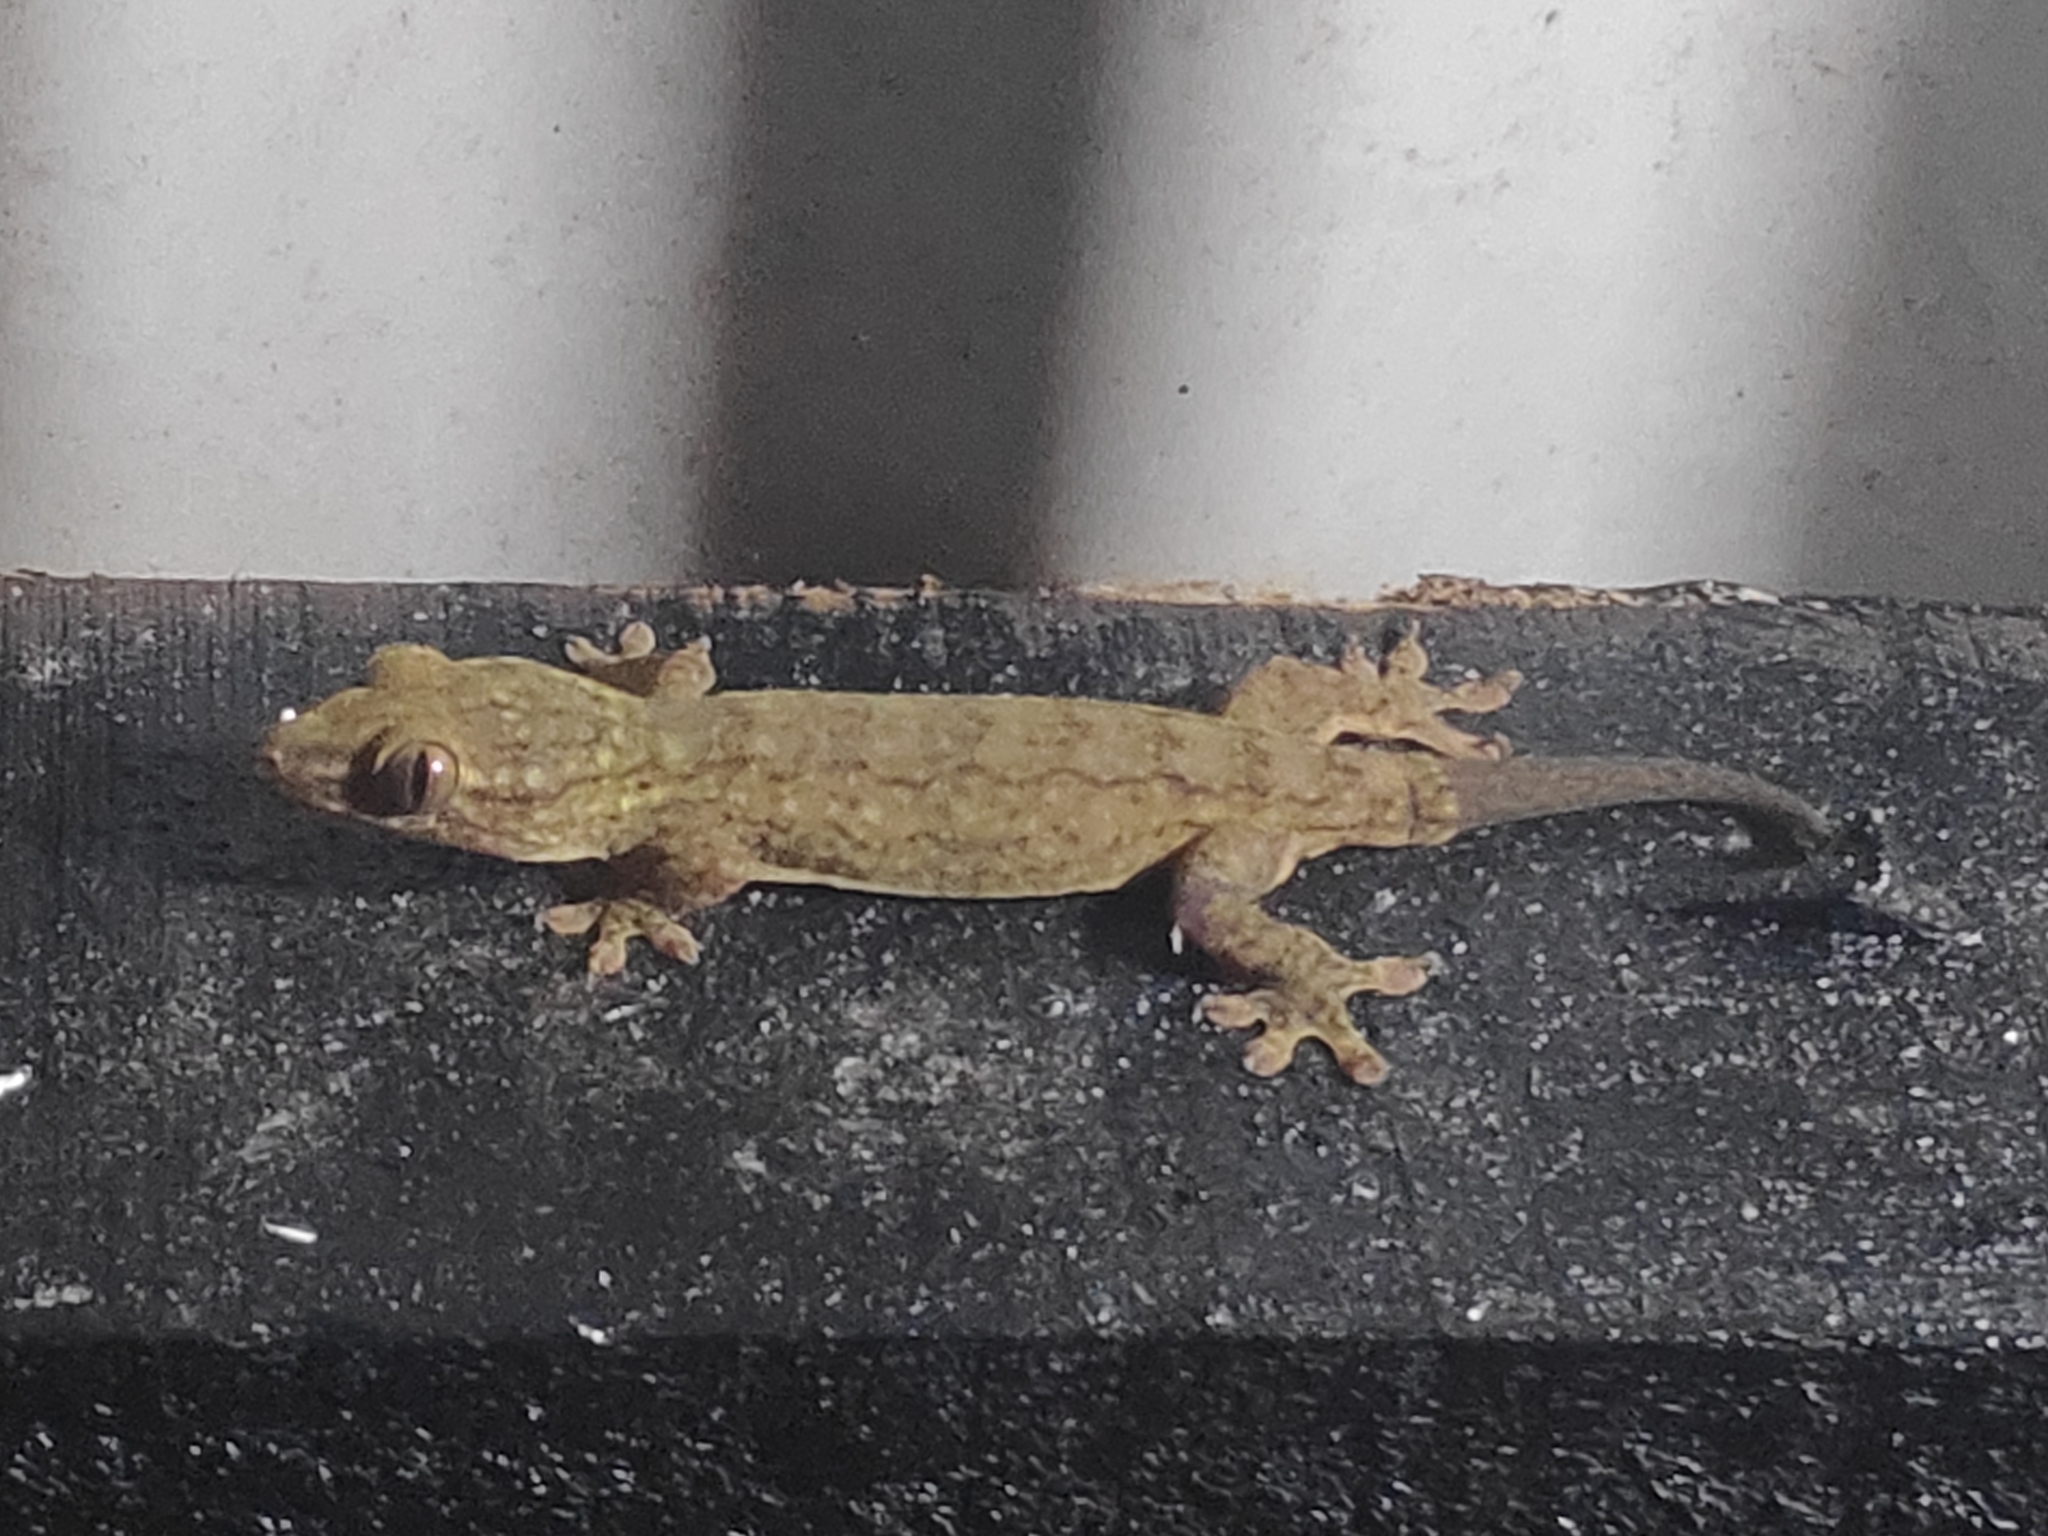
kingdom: Animalia
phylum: Chordata
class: Squamata
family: Gekkonidae
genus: Gehyra
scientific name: Gehyra oceanica
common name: Pacific dtella
